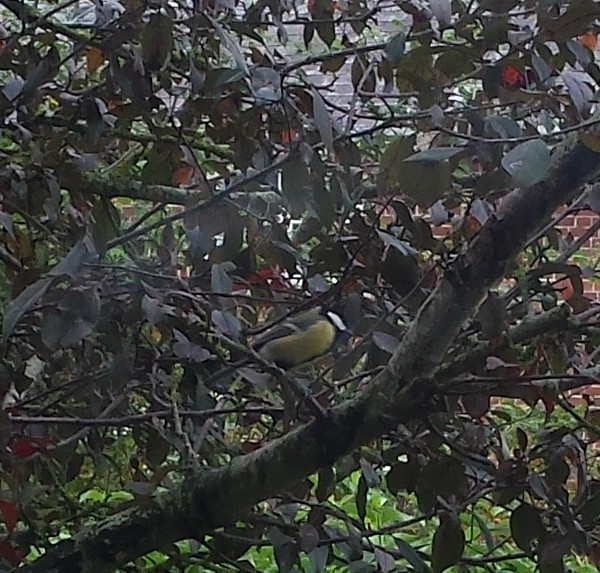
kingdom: Animalia
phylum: Chordata
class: Aves
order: Passeriformes
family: Paridae
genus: Parus
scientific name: Parus major
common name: Great tit
